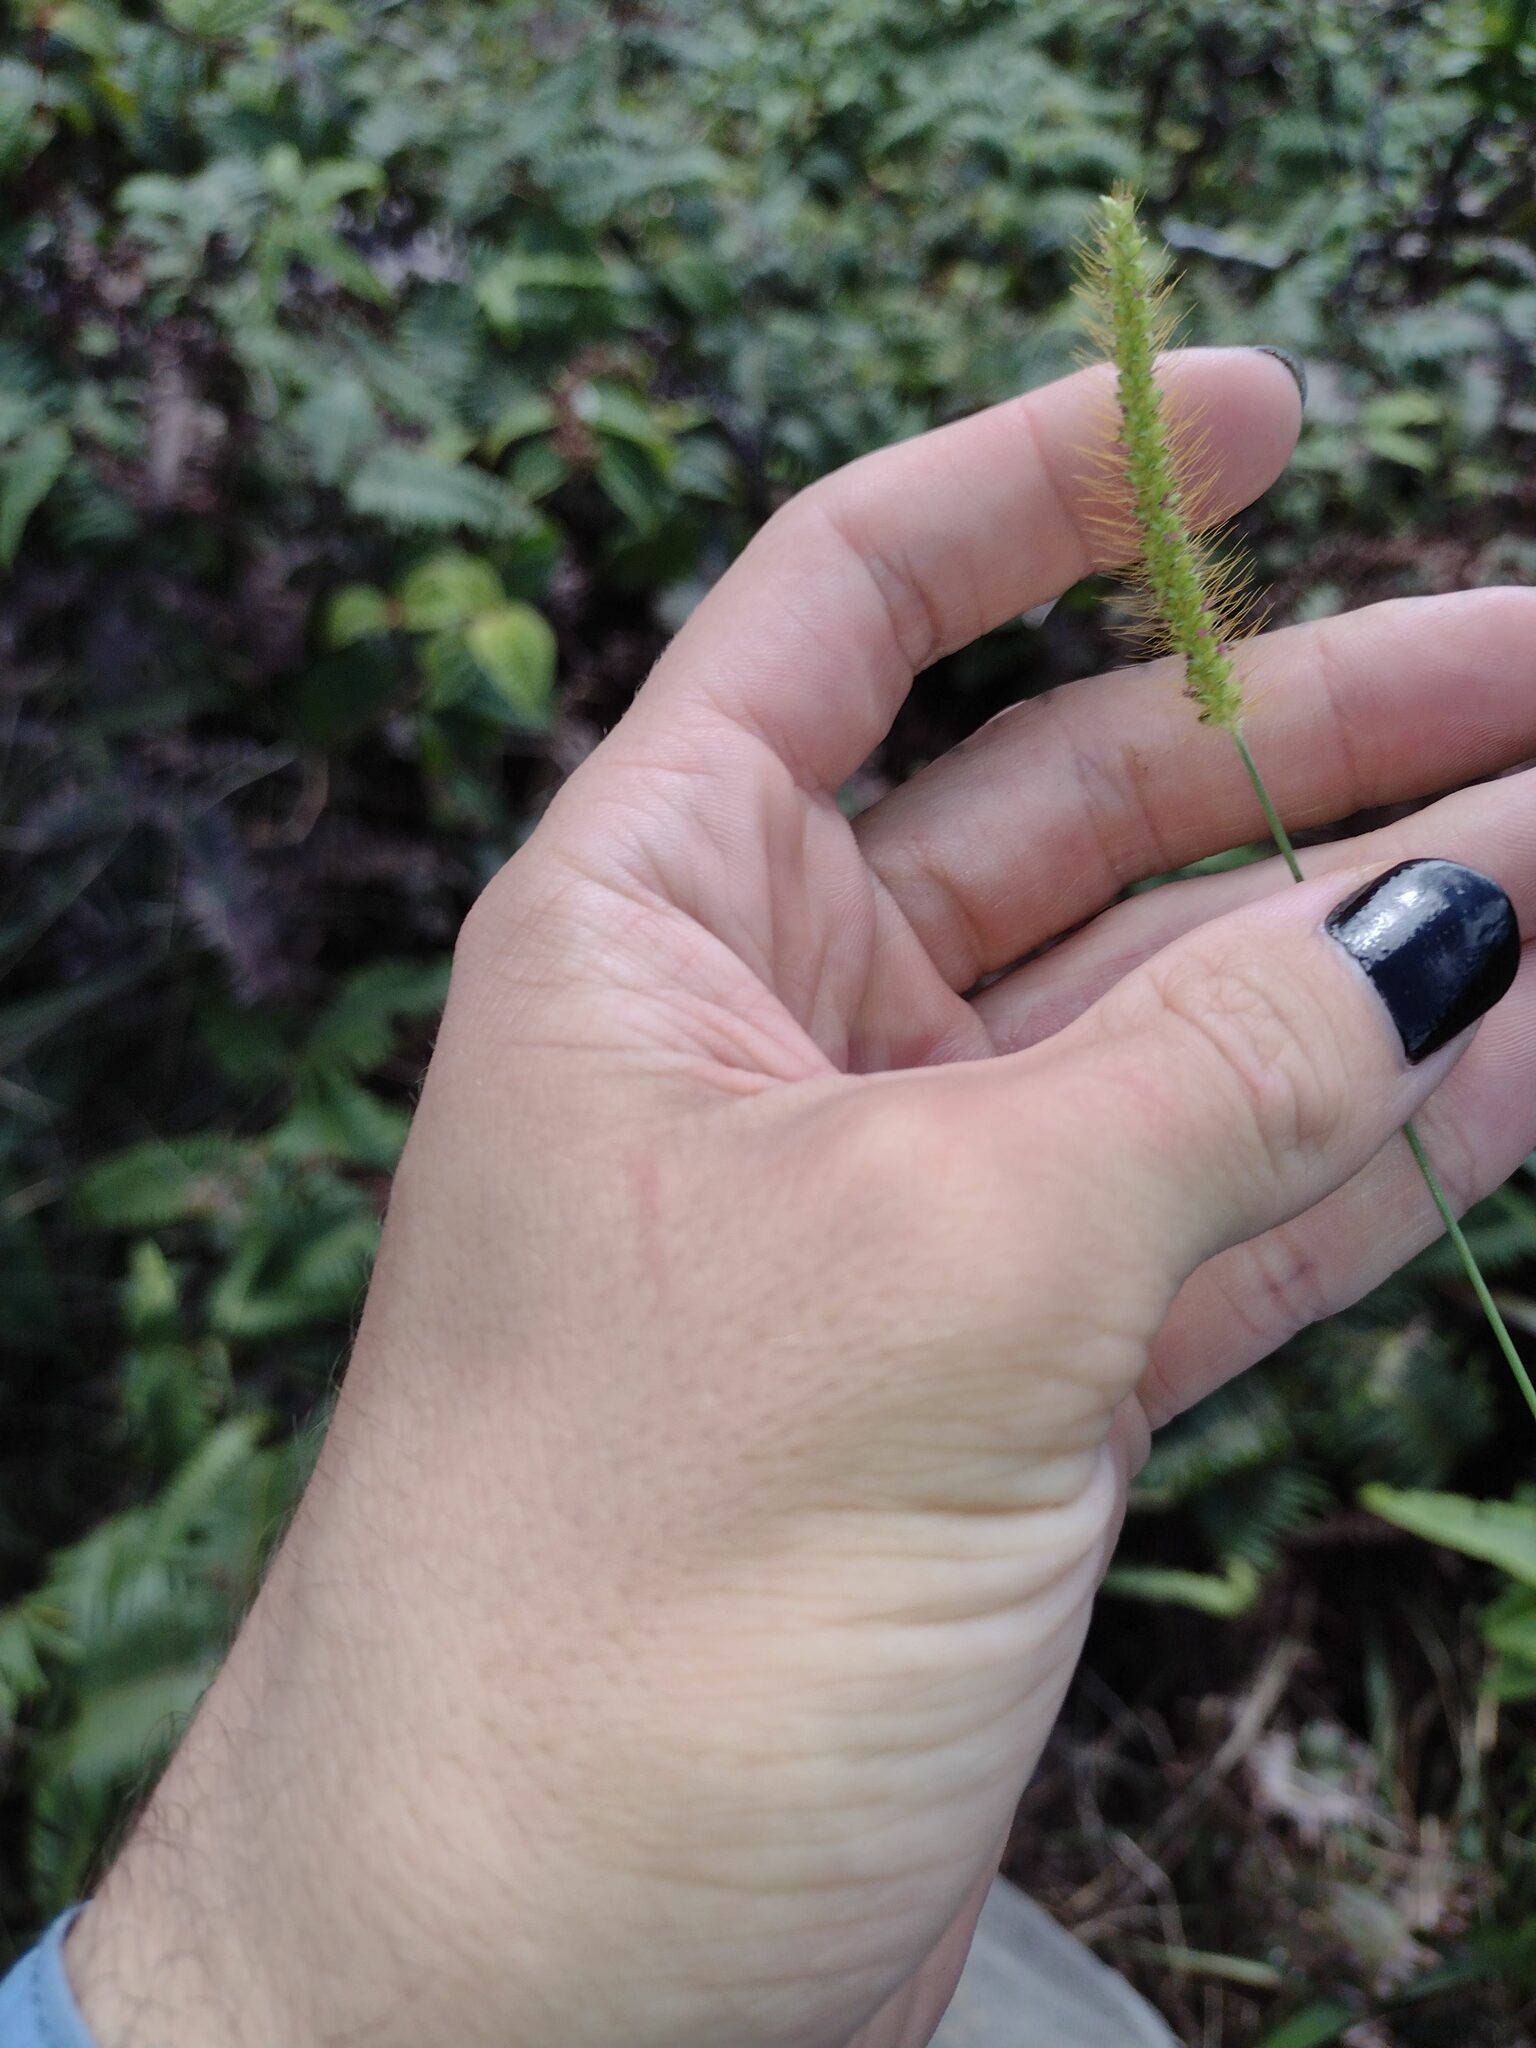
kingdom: Plantae
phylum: Tracheophyta
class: Liliopsida
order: Poales
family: Poaceae
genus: Setaria
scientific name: Setaria parviflora
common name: Knotroot bristle-grass
